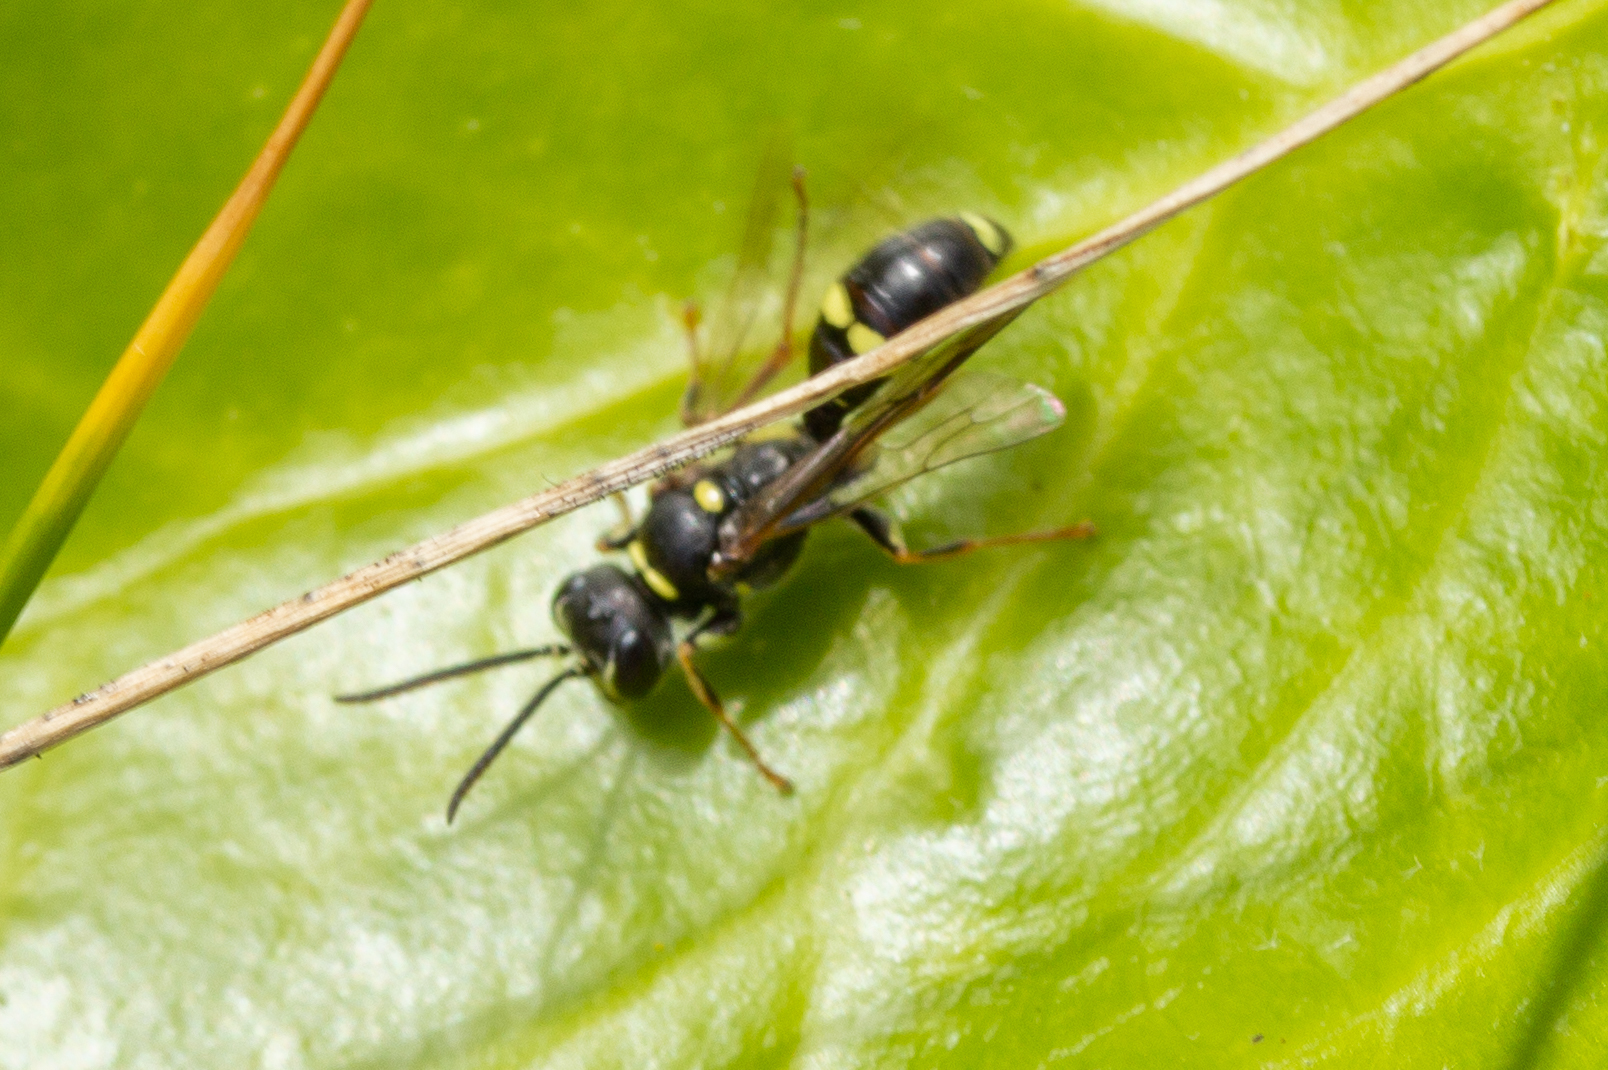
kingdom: Animalia
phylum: Arthropoda
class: Insecta
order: Hymenoptera
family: Crabronidae
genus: Mellinus
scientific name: Mellinus arvensis
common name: Field digger wasp
